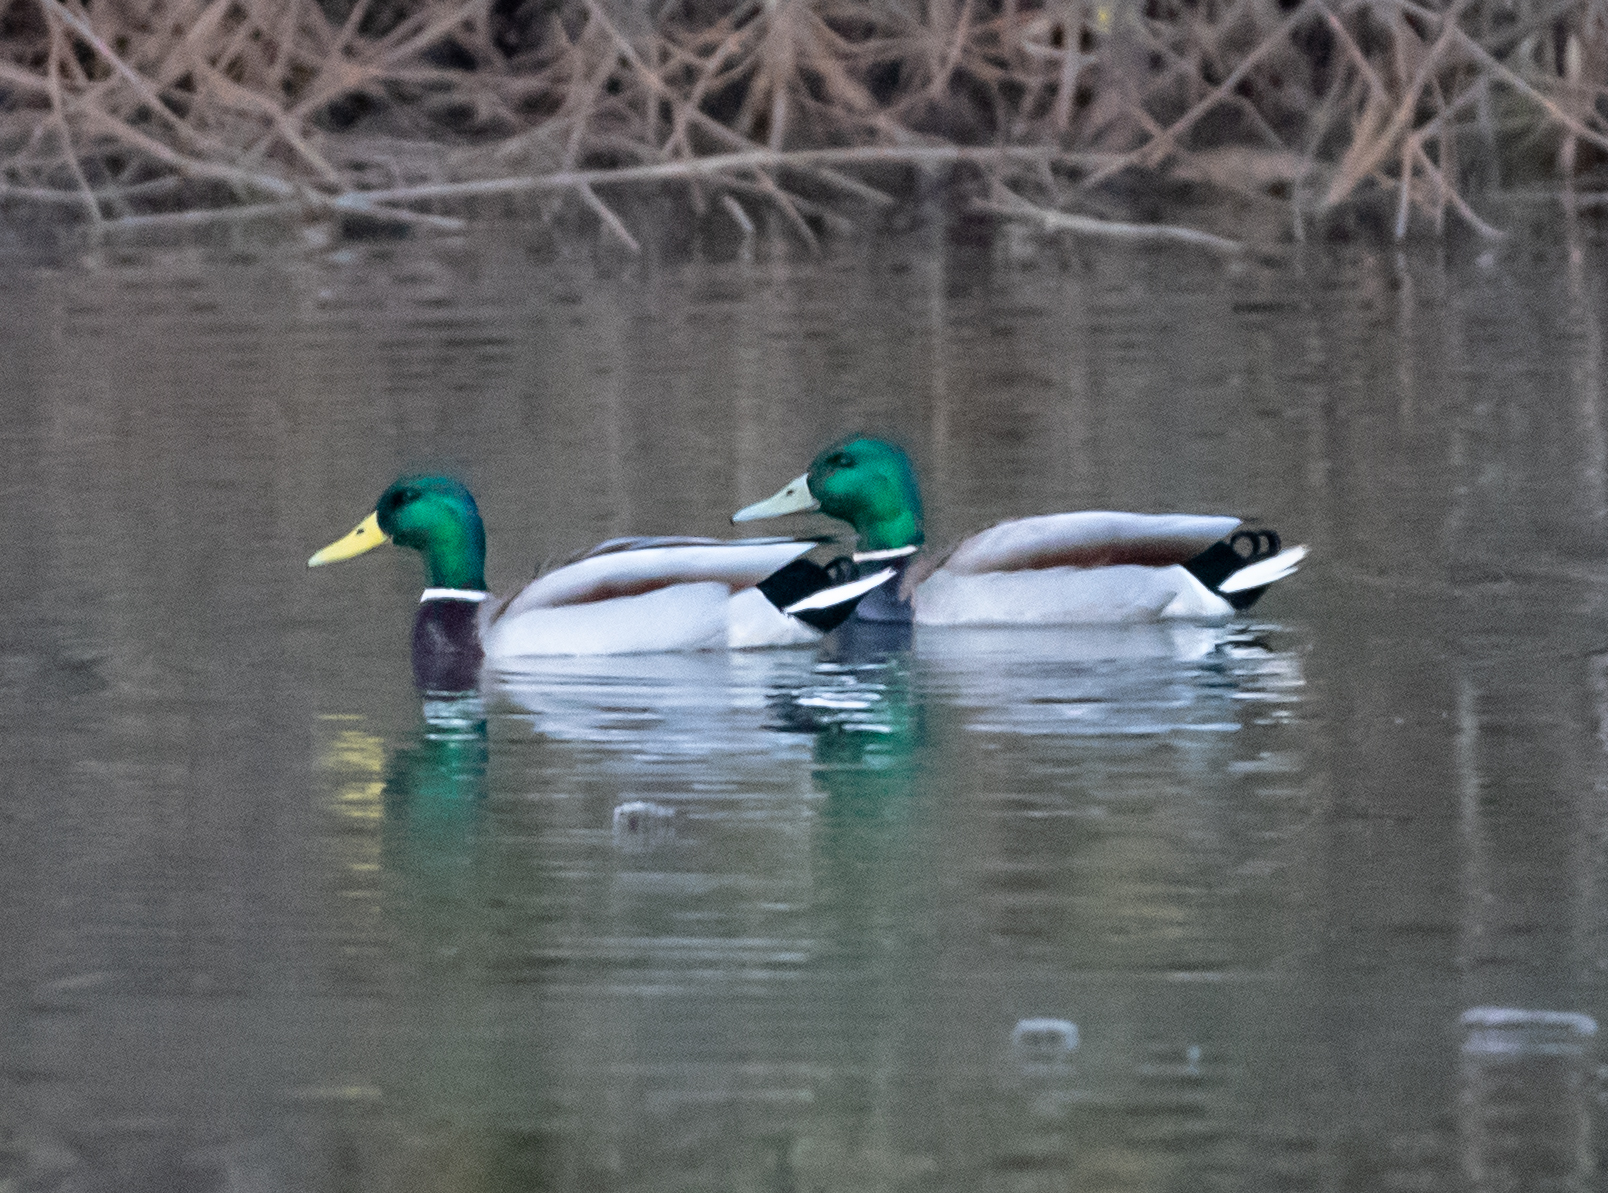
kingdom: Animalia
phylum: Chordata
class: Aves
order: Anseriformes
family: Anatidae
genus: Anas
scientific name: Anas platyrhynchos
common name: Mallard
